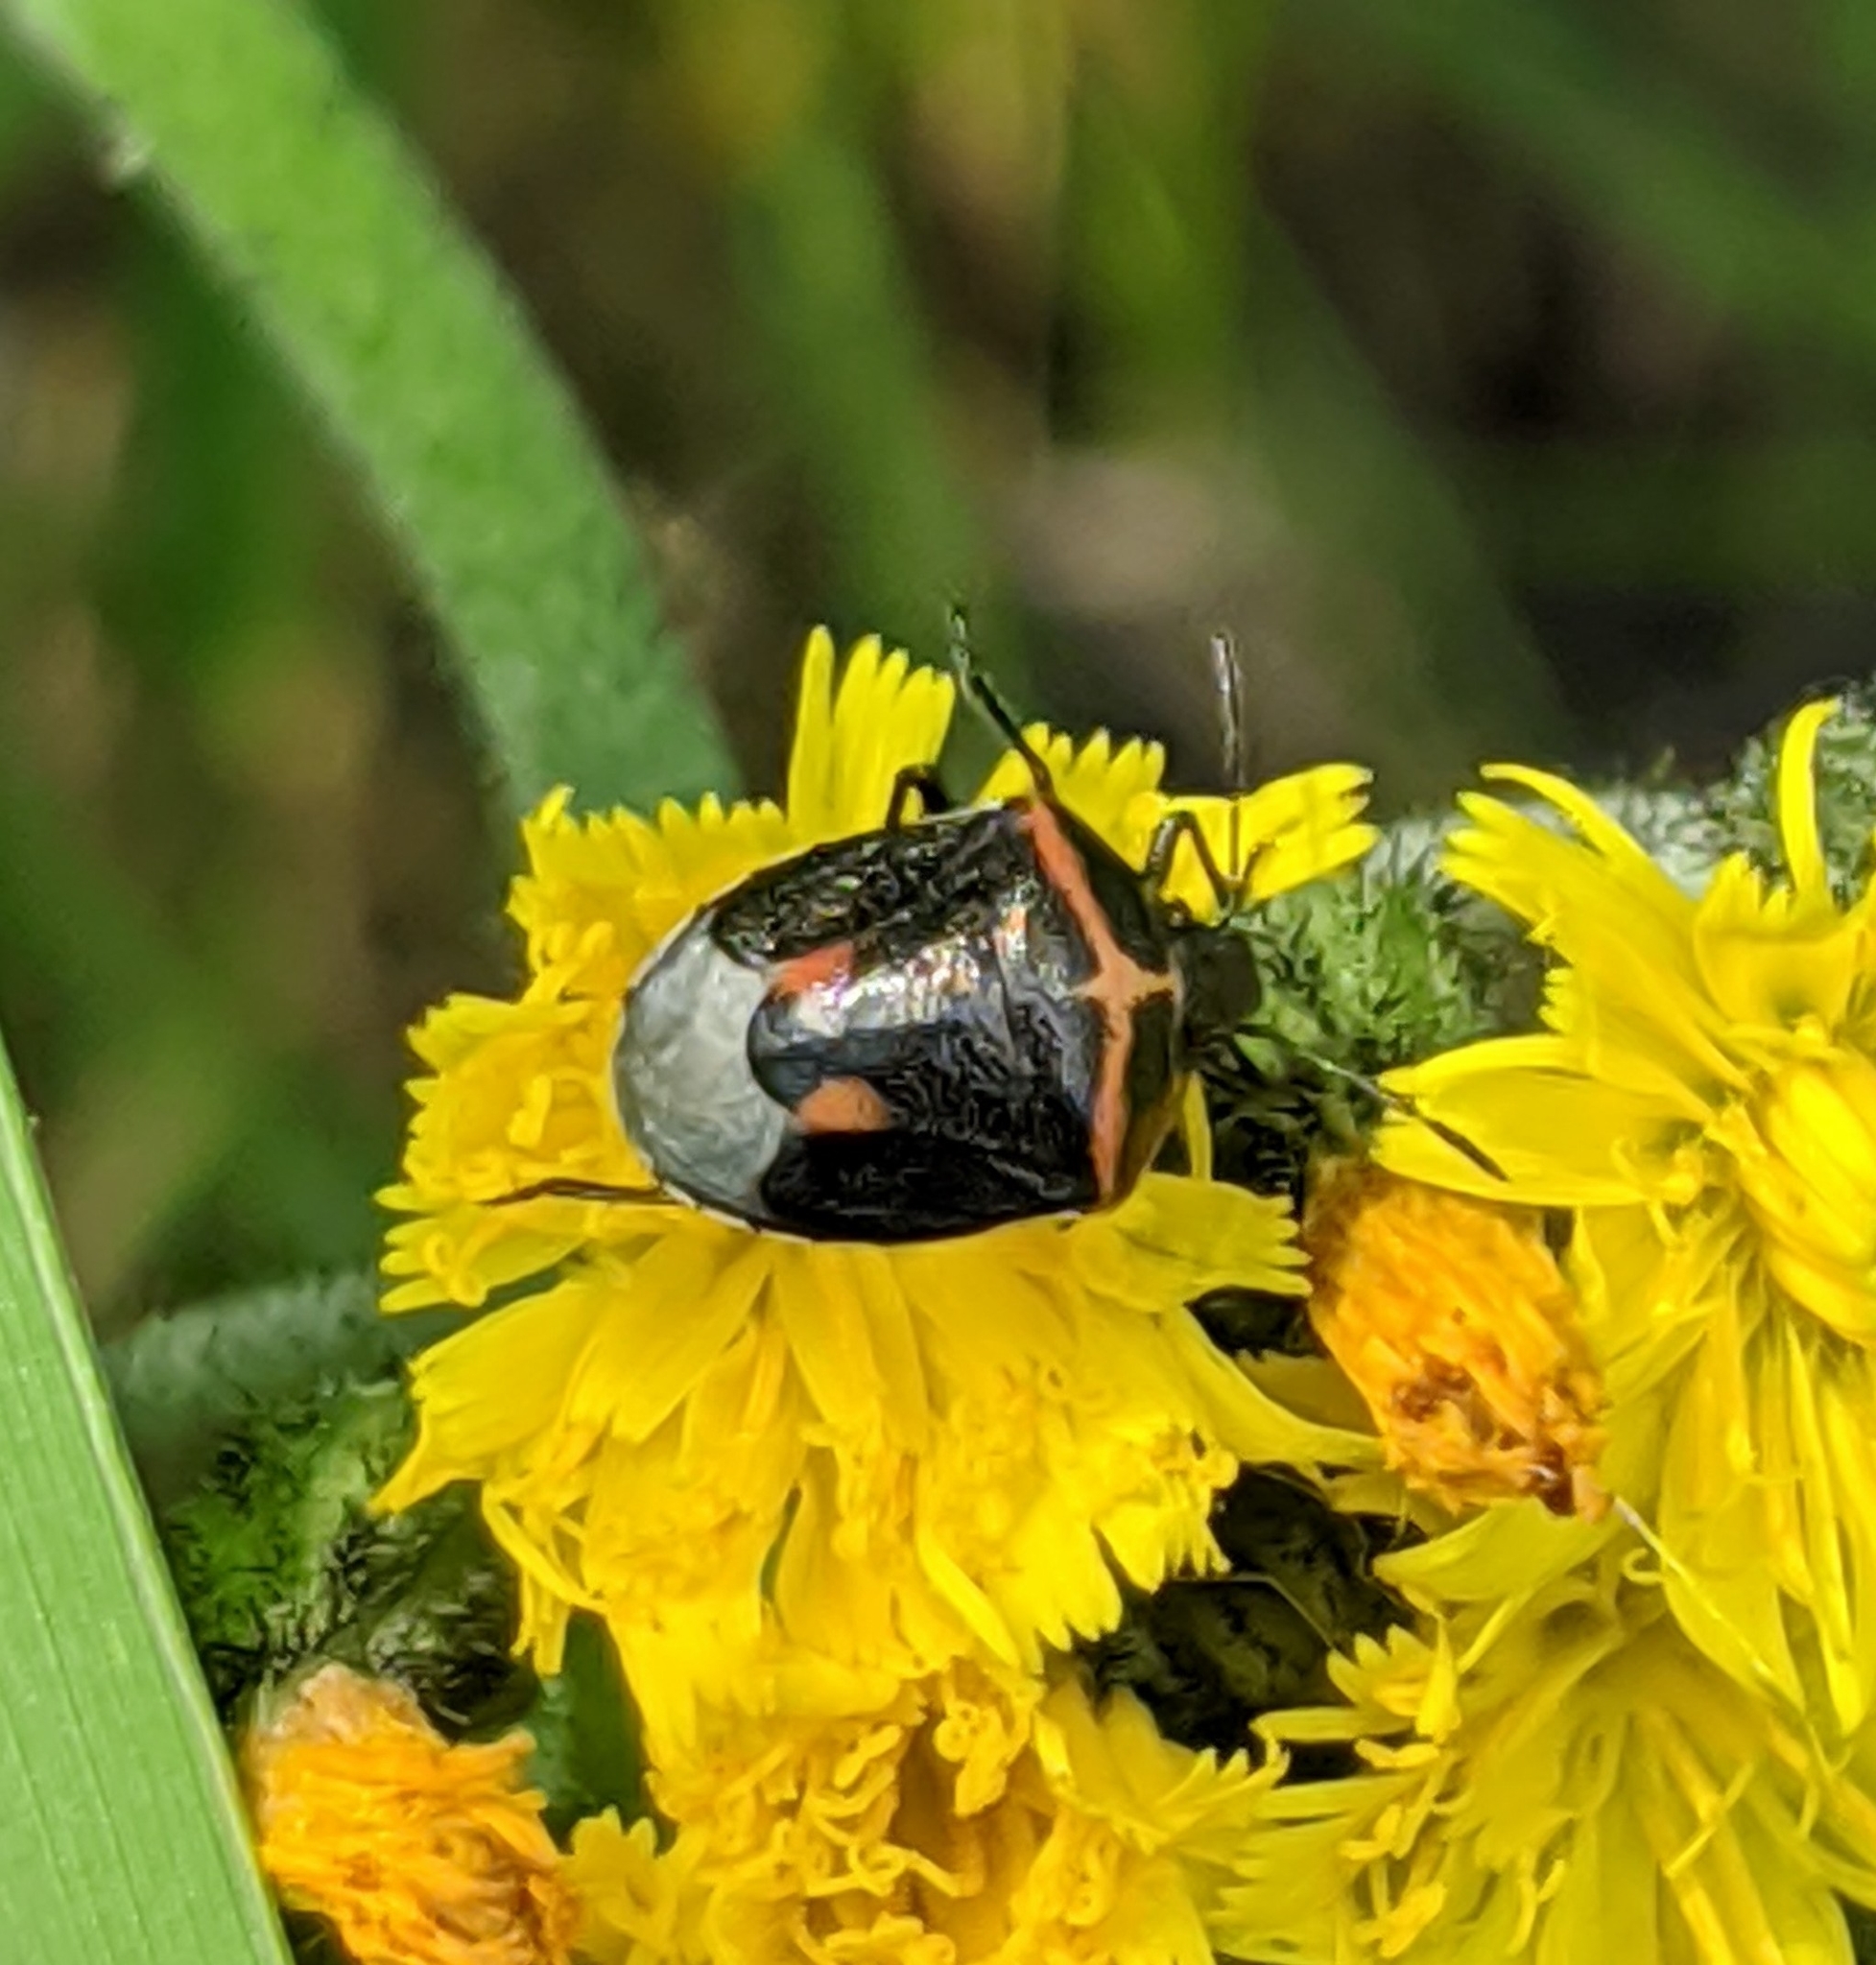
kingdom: Animalia
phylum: Arthropoda
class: Insecta
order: Hemiptera
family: Pentatomidae
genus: Cosmopepla
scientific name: Cosmopepla lintneriana
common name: Twice-stabbed stink bug
